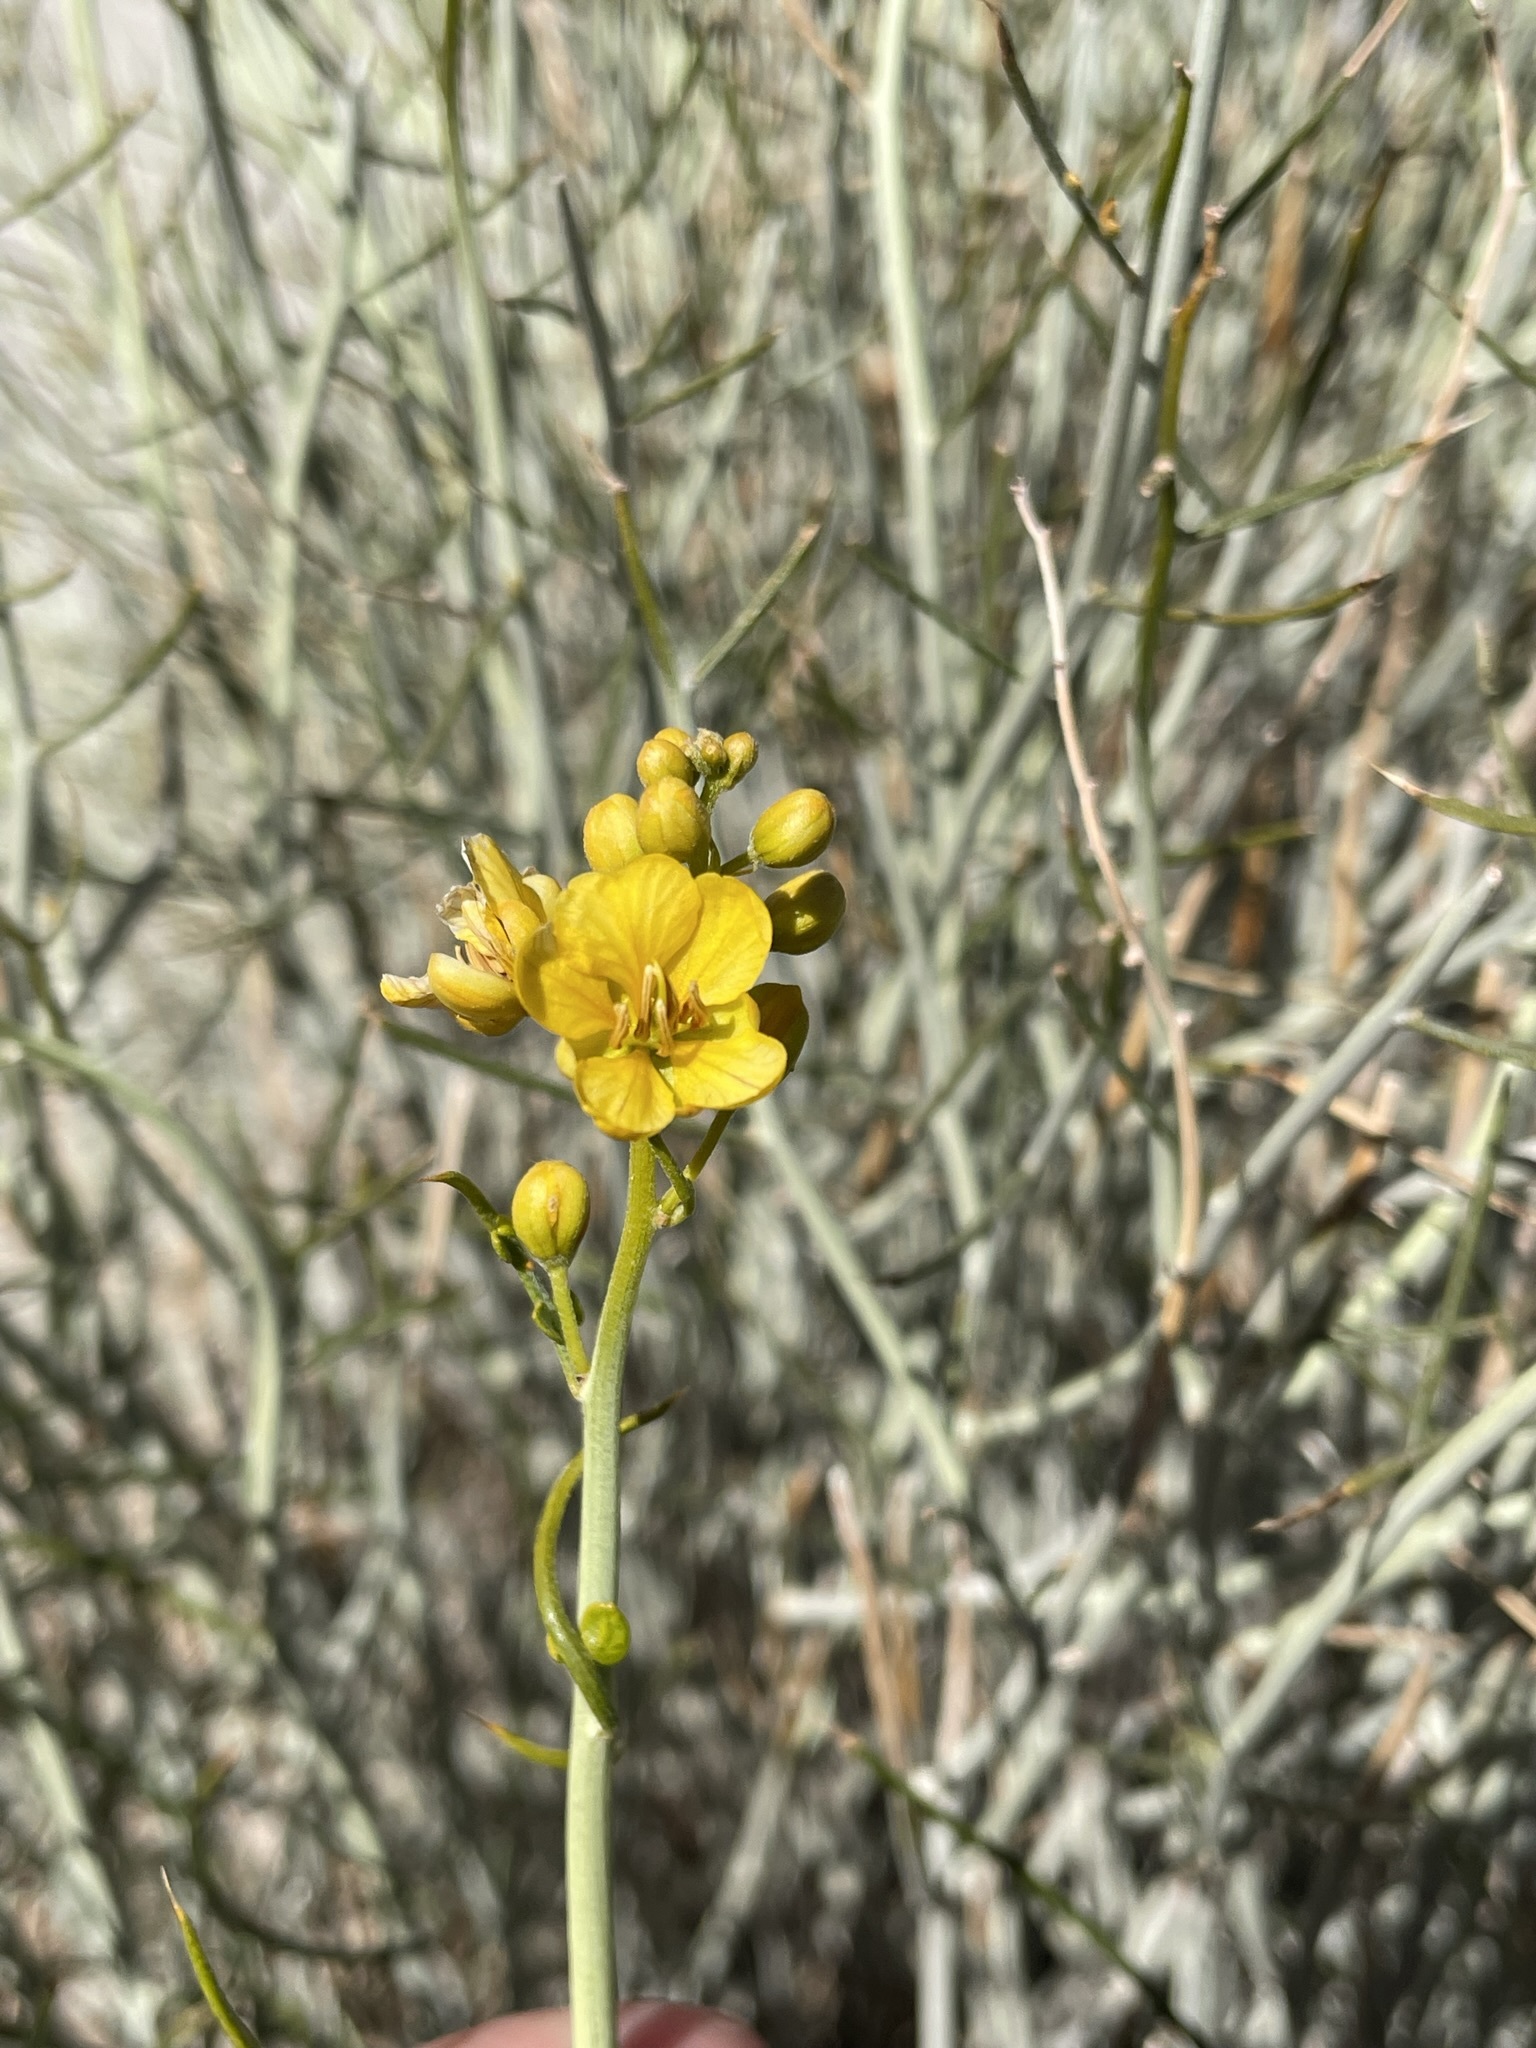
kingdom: Plantae
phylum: Tracheophyta
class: Magnoliopsida
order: Fabales
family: Fabaceae
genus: Senna
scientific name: Senna armata
